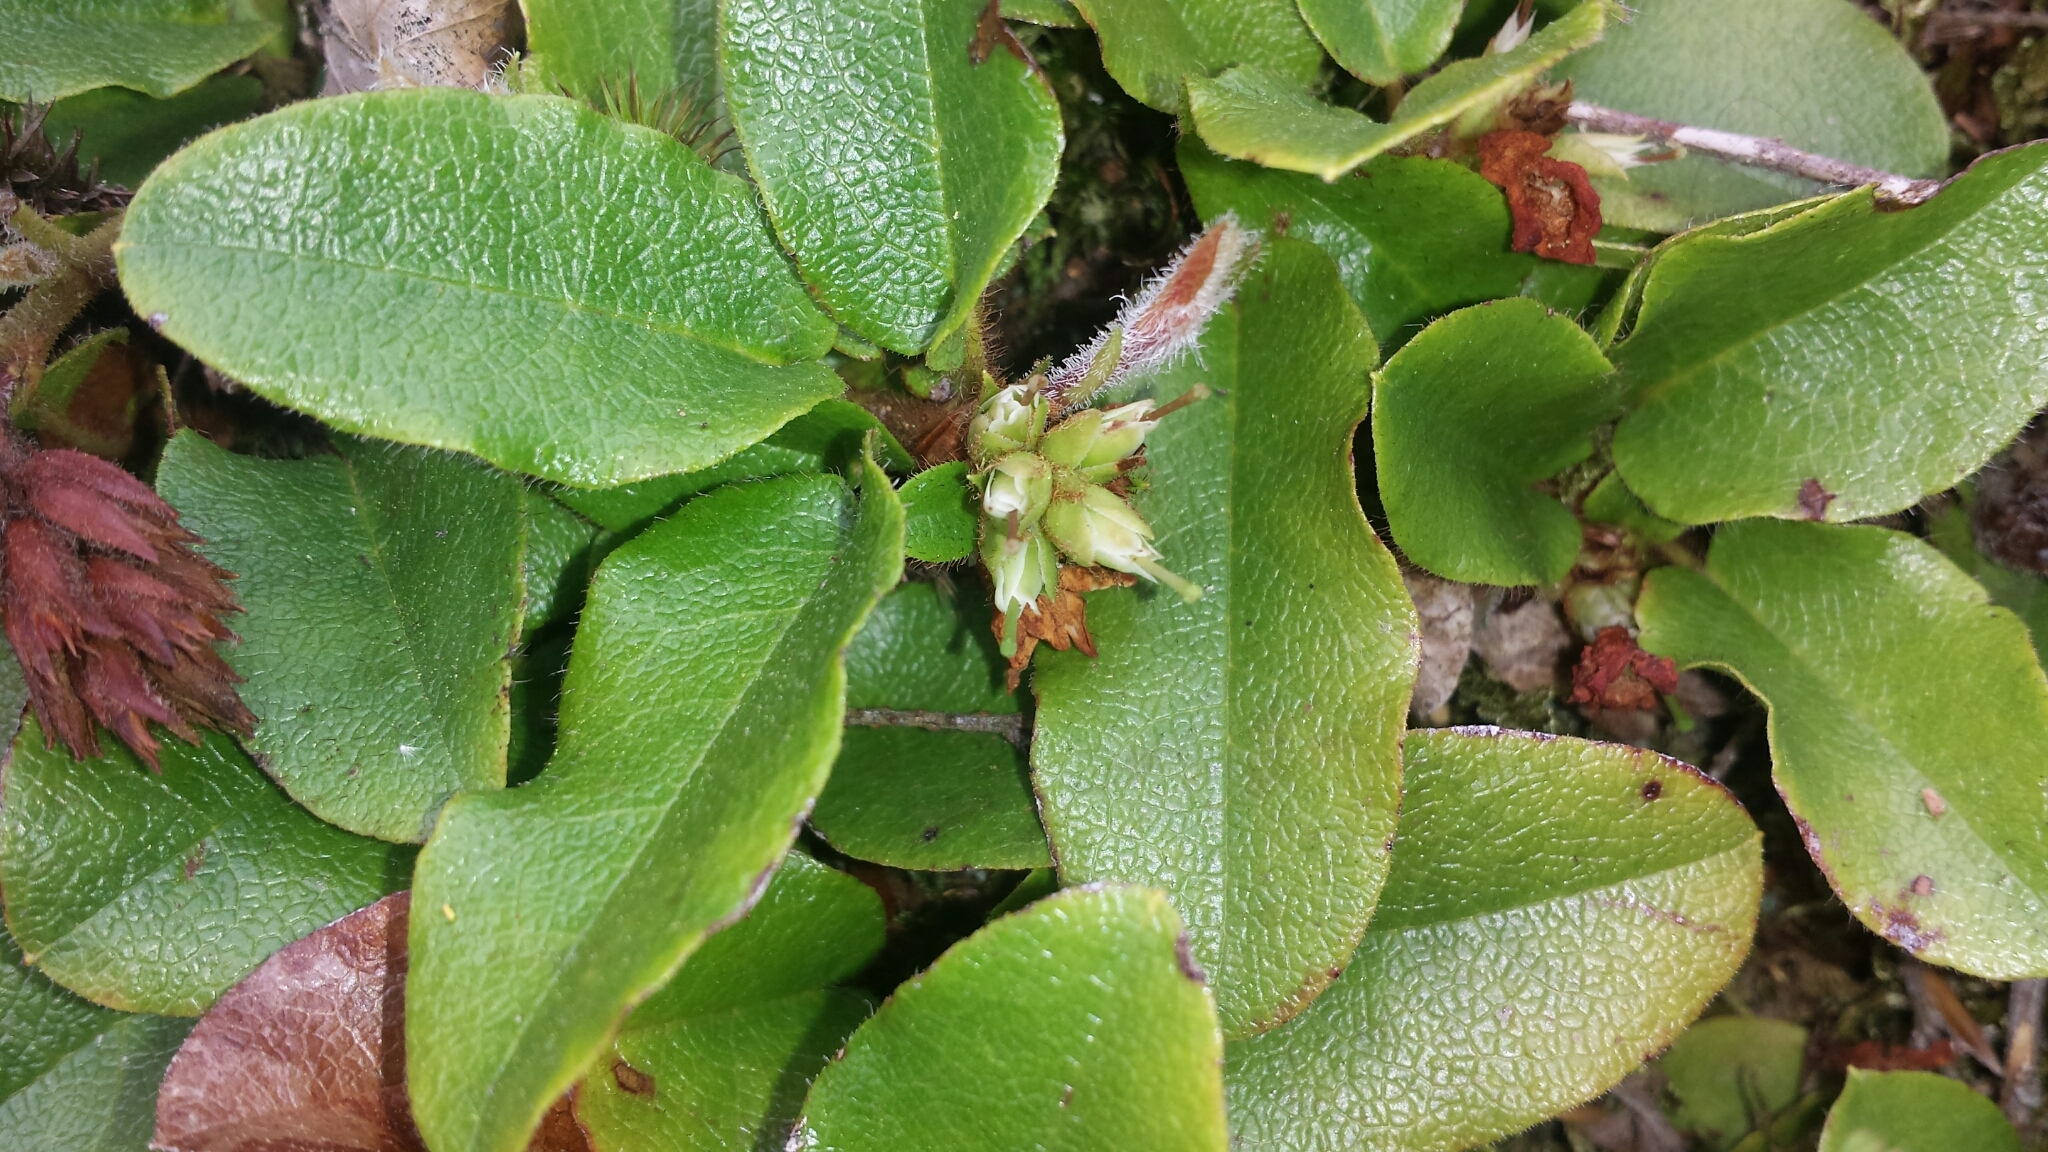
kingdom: Plantae
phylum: Tracheophyta
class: Magnoliopsida
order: Ericales
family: Ericaceae
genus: Epigaea
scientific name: Epigaea repens
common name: Gravelroot
